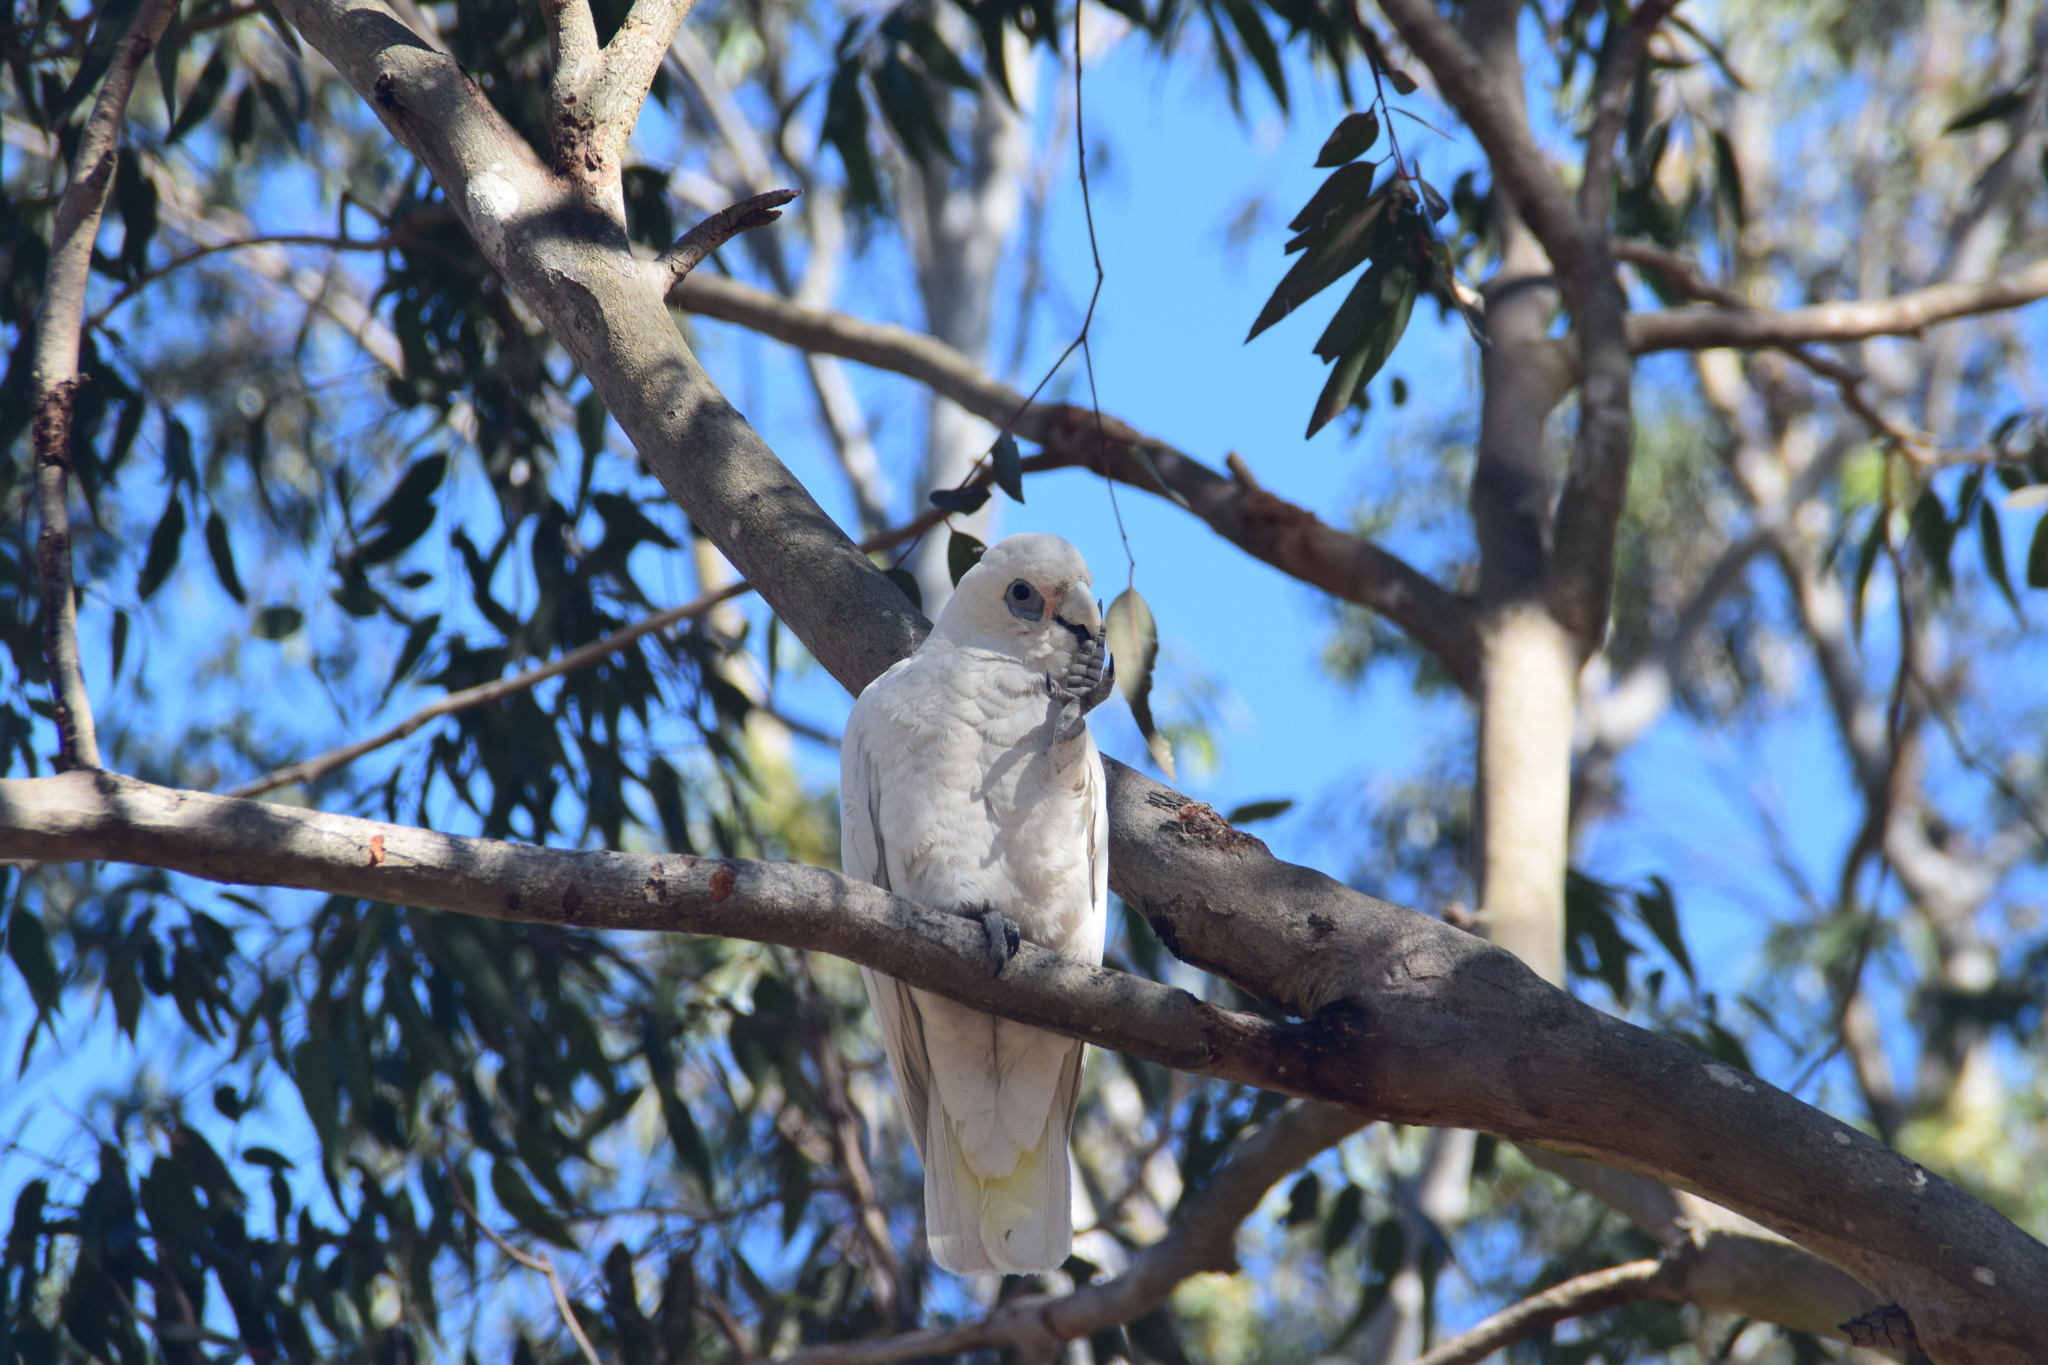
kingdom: Animalia
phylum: Chordata
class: Aves
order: Psittaciformes
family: Psittacidae
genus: Cacatua
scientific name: Cacatua sanguinea
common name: Little corella
